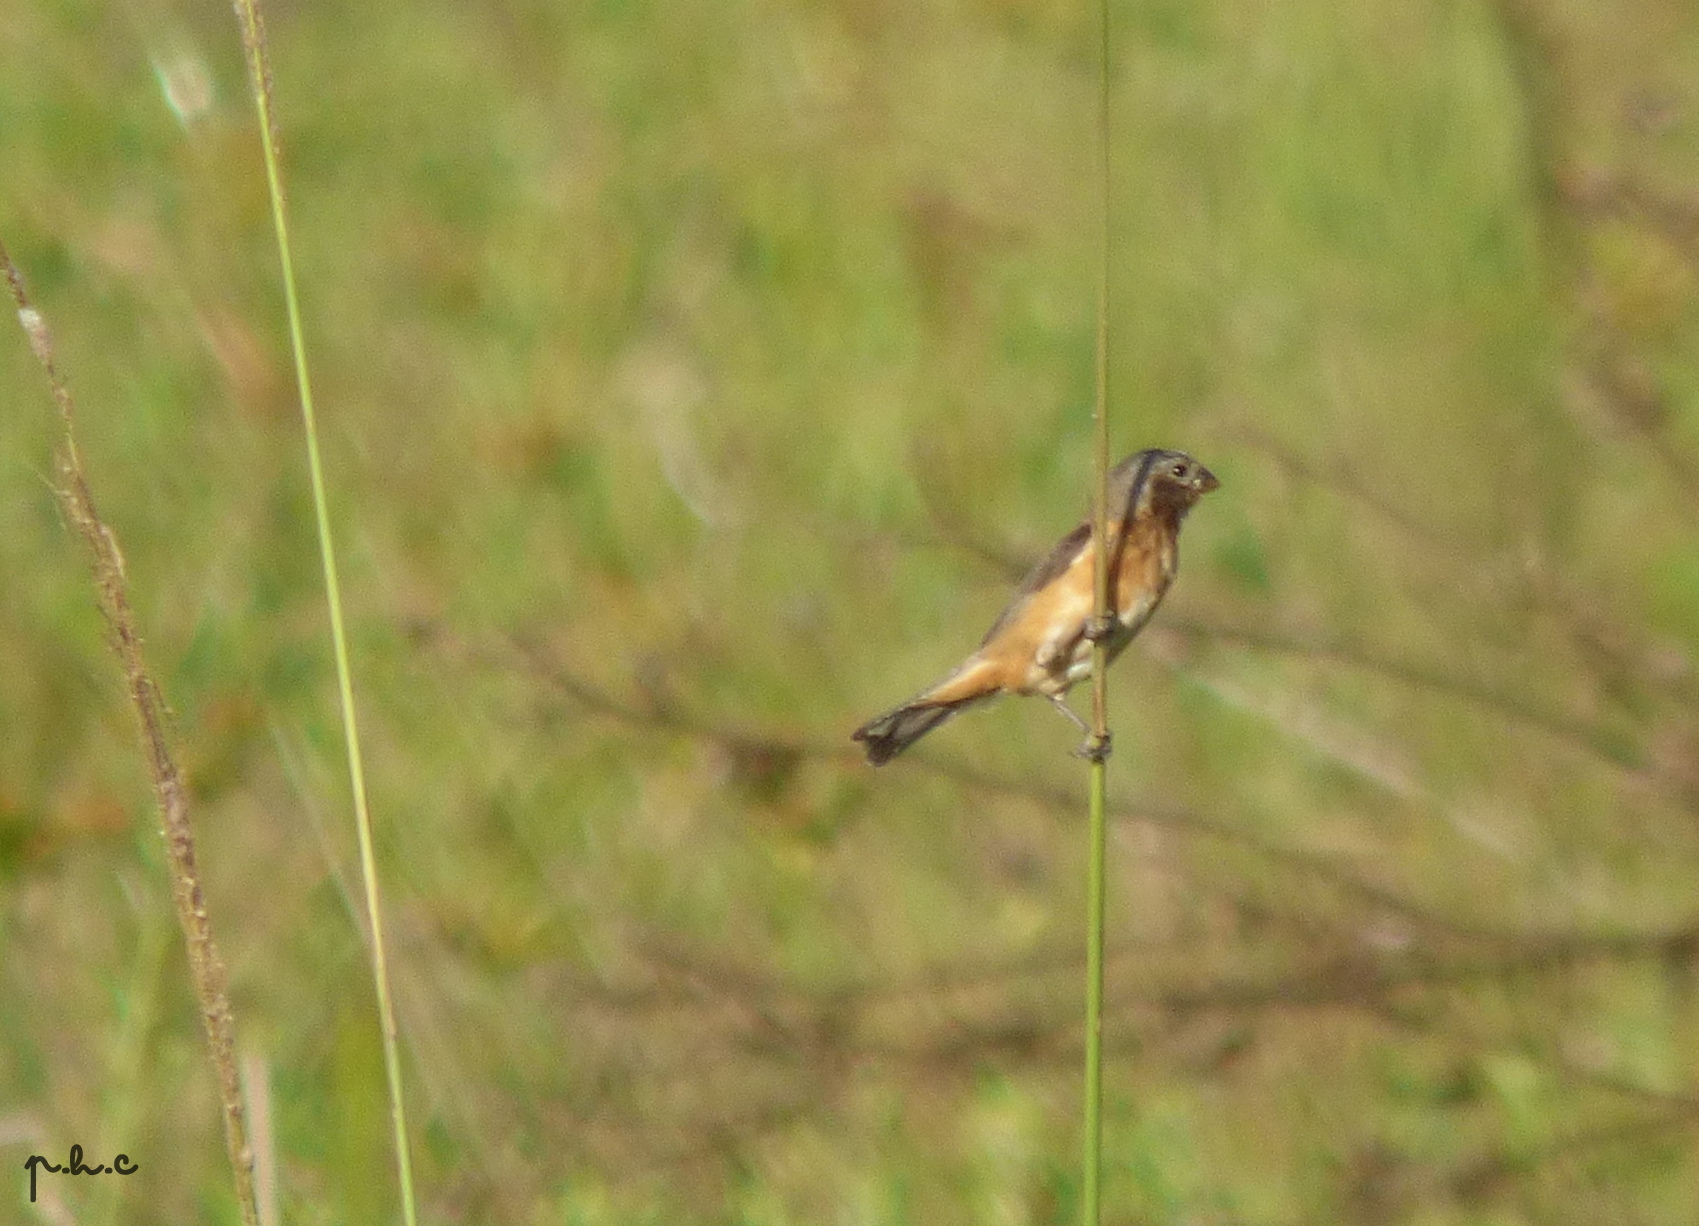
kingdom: Animalia
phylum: Chordata
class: Aves
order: Passeriformes
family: Thraupidae
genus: Sporophila
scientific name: Sporophila ruficollis
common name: Dark-throated seedeater
